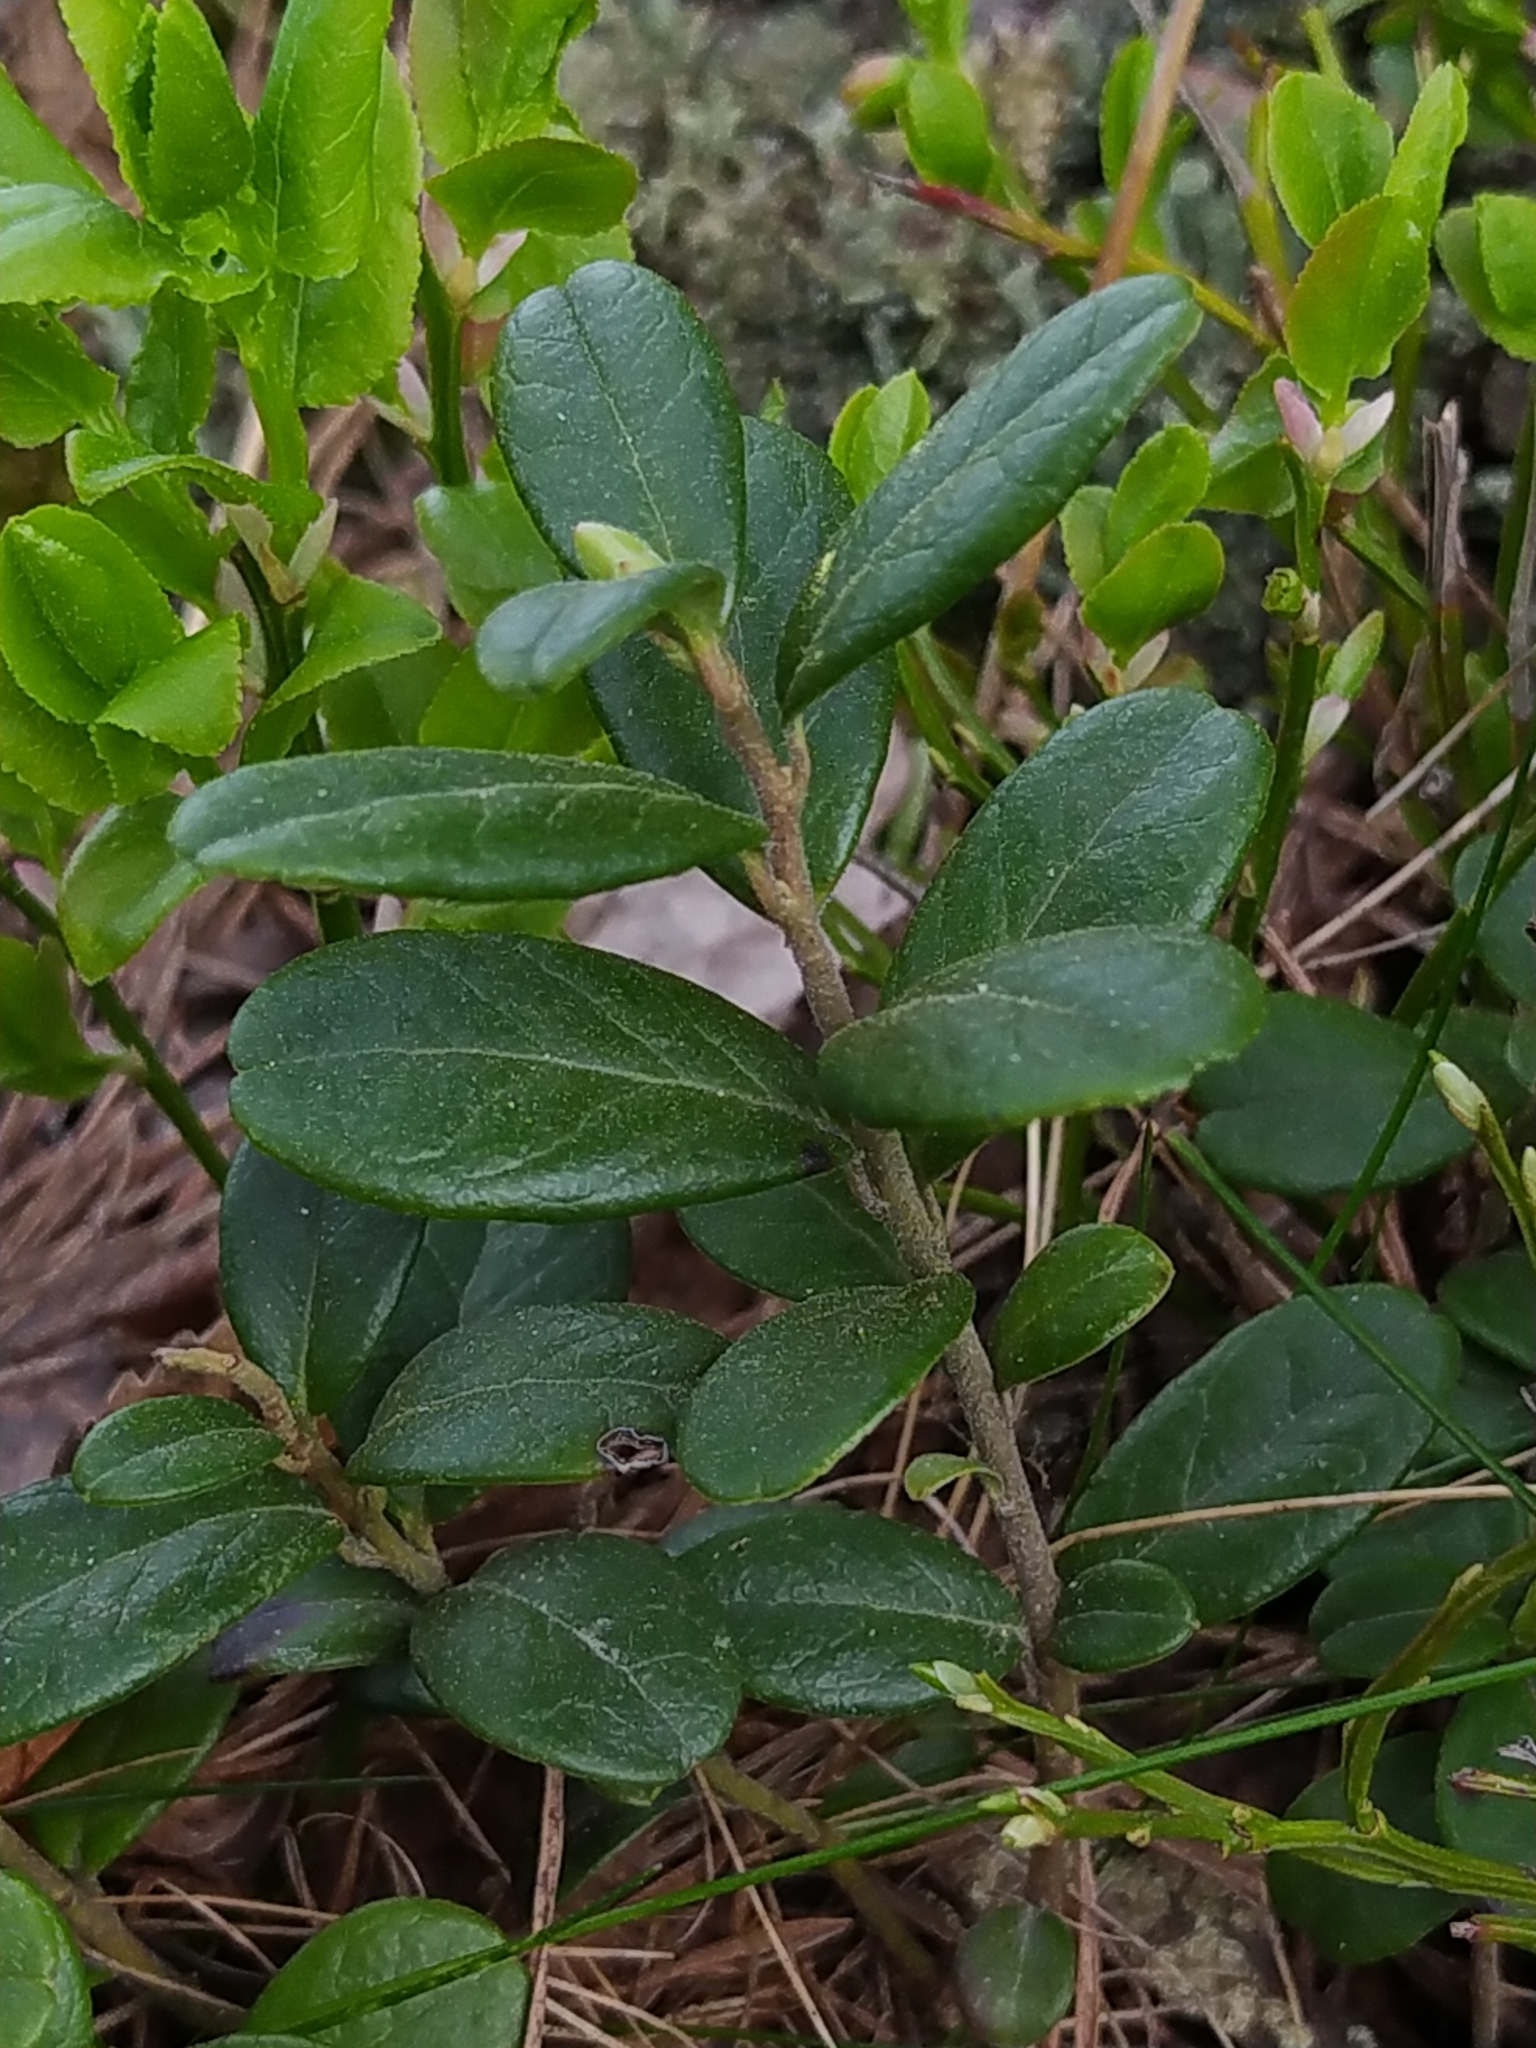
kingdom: Plantae
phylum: Tracheophyta
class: Magnoliopsida
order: Ericales
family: Ericaceae
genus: Vaccinium
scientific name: Vaccinium vitis-idaea
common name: Cowberry
